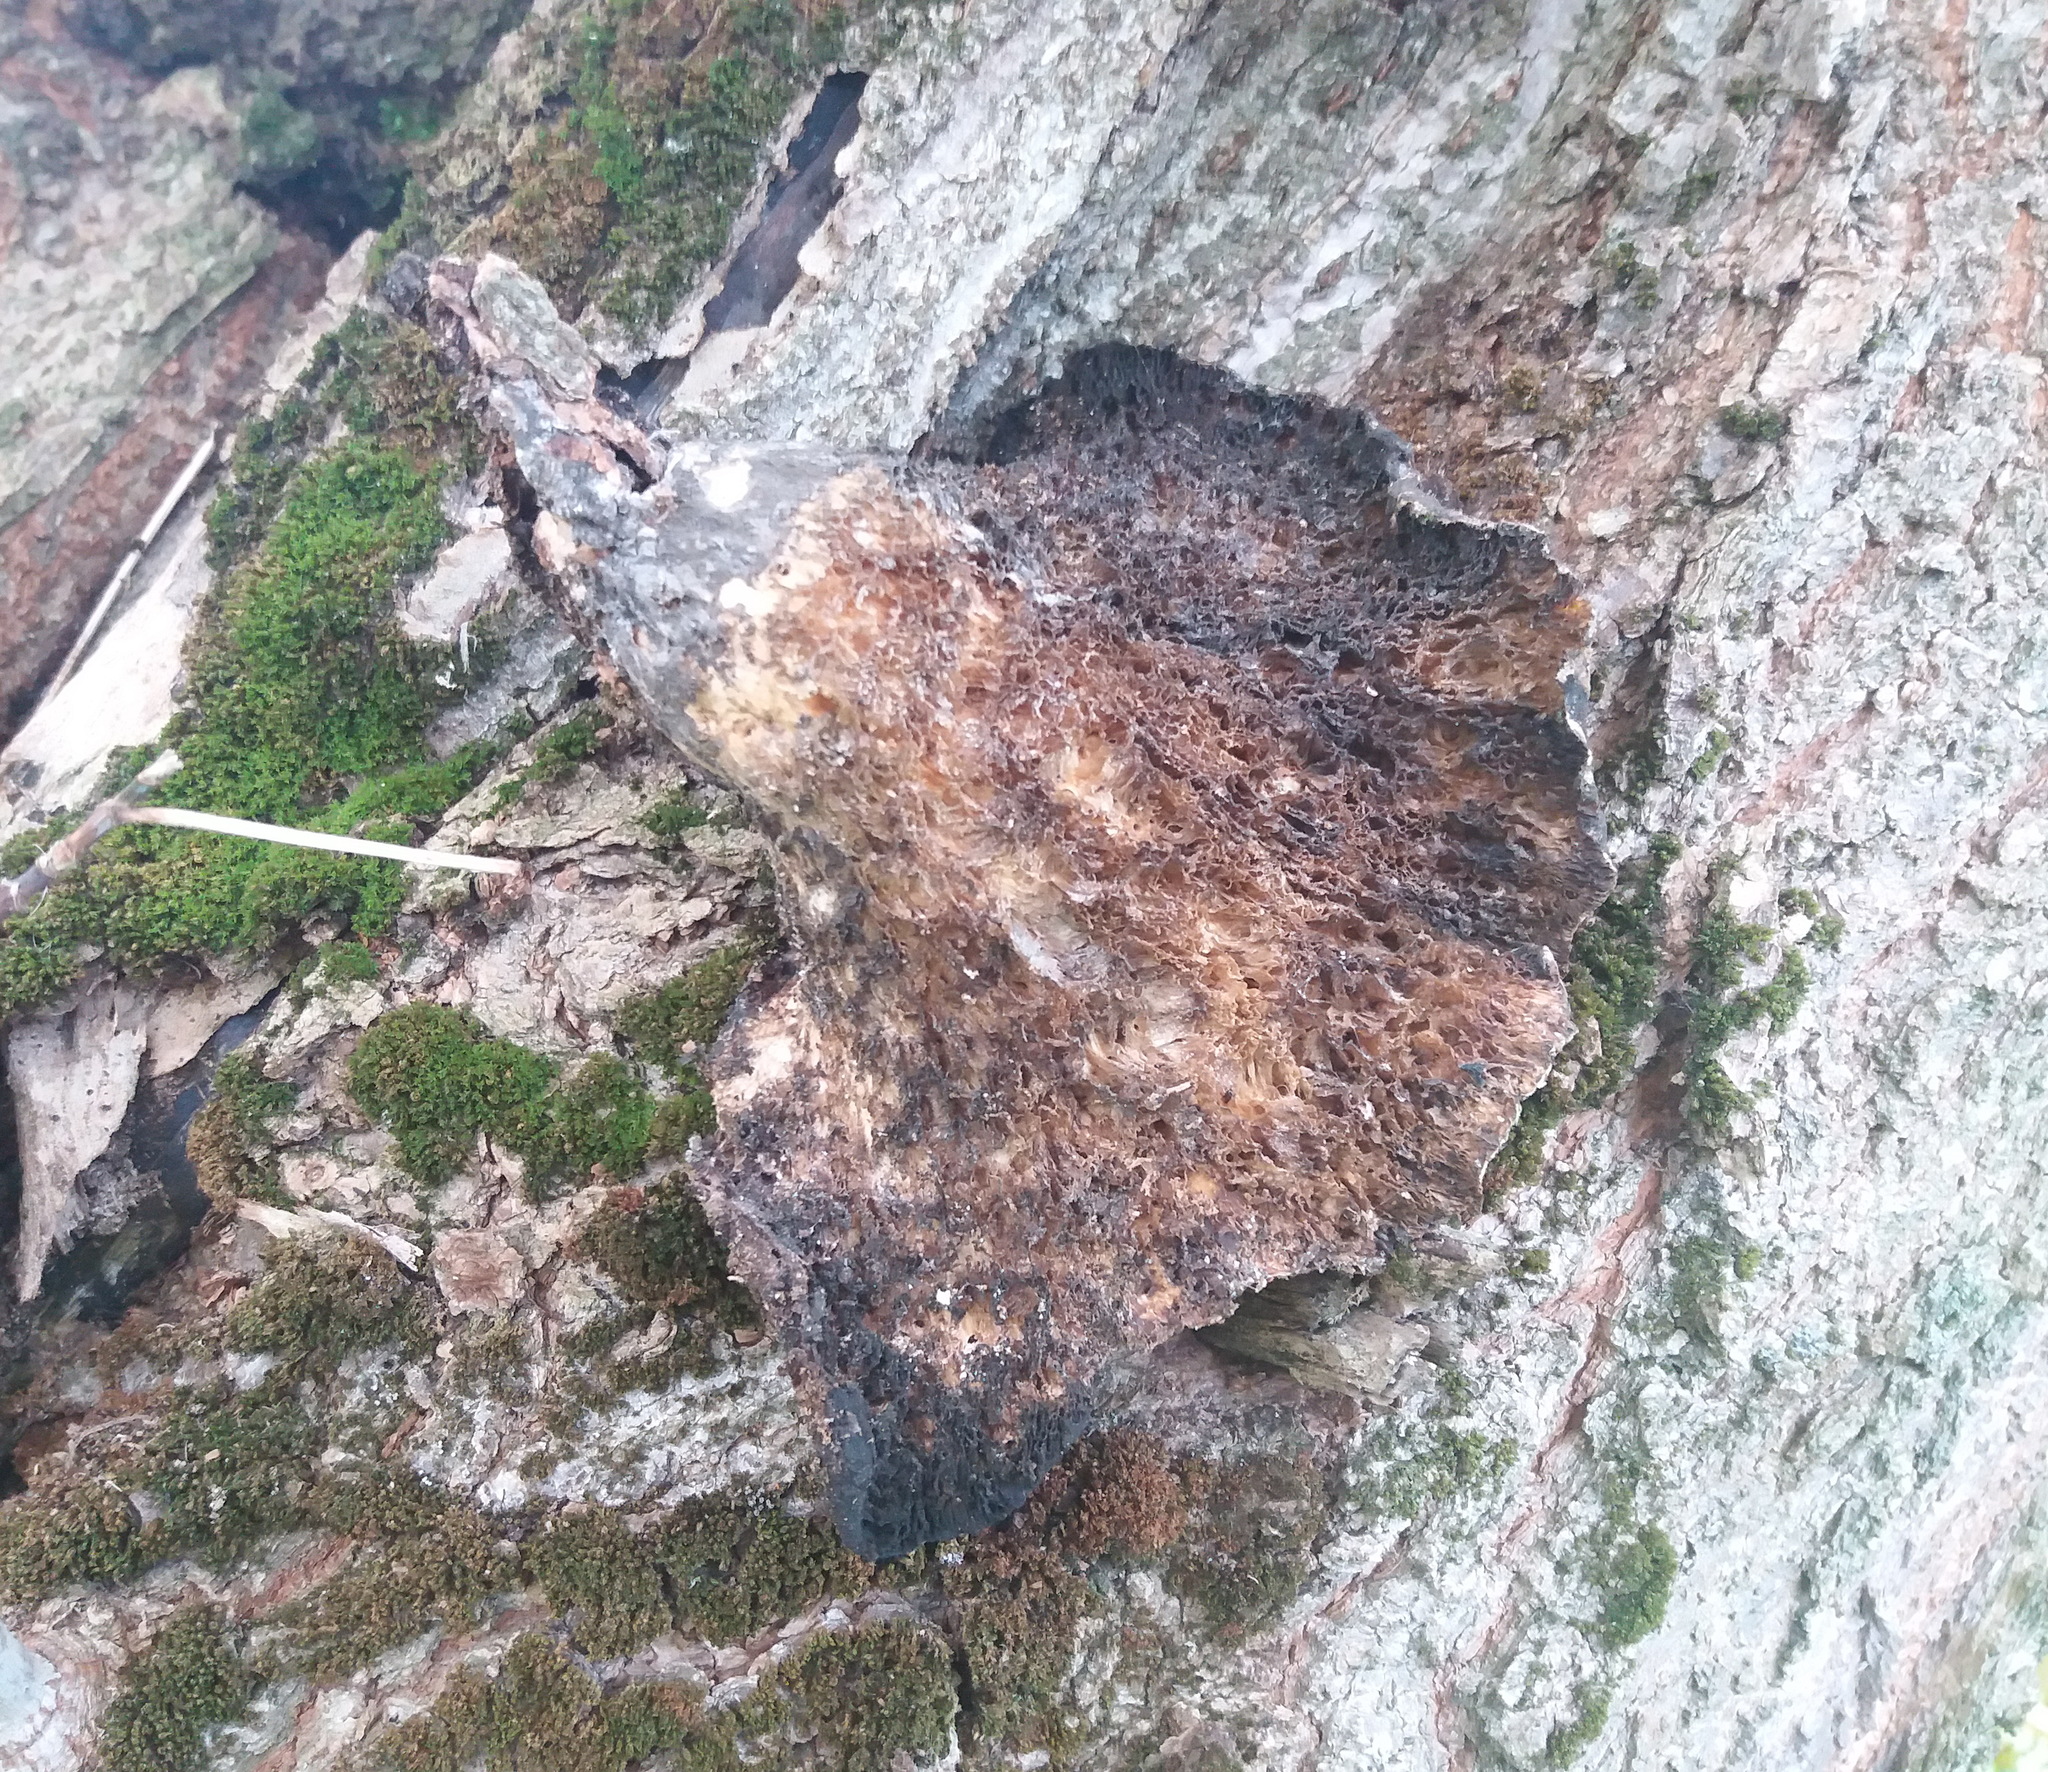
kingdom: Fungi
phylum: Basidiomycota
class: Agaricomycetes
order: Polyporales
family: Polyporaceae
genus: Cerioporus
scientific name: Cerioporus squamosus
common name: Dryad's saddle
